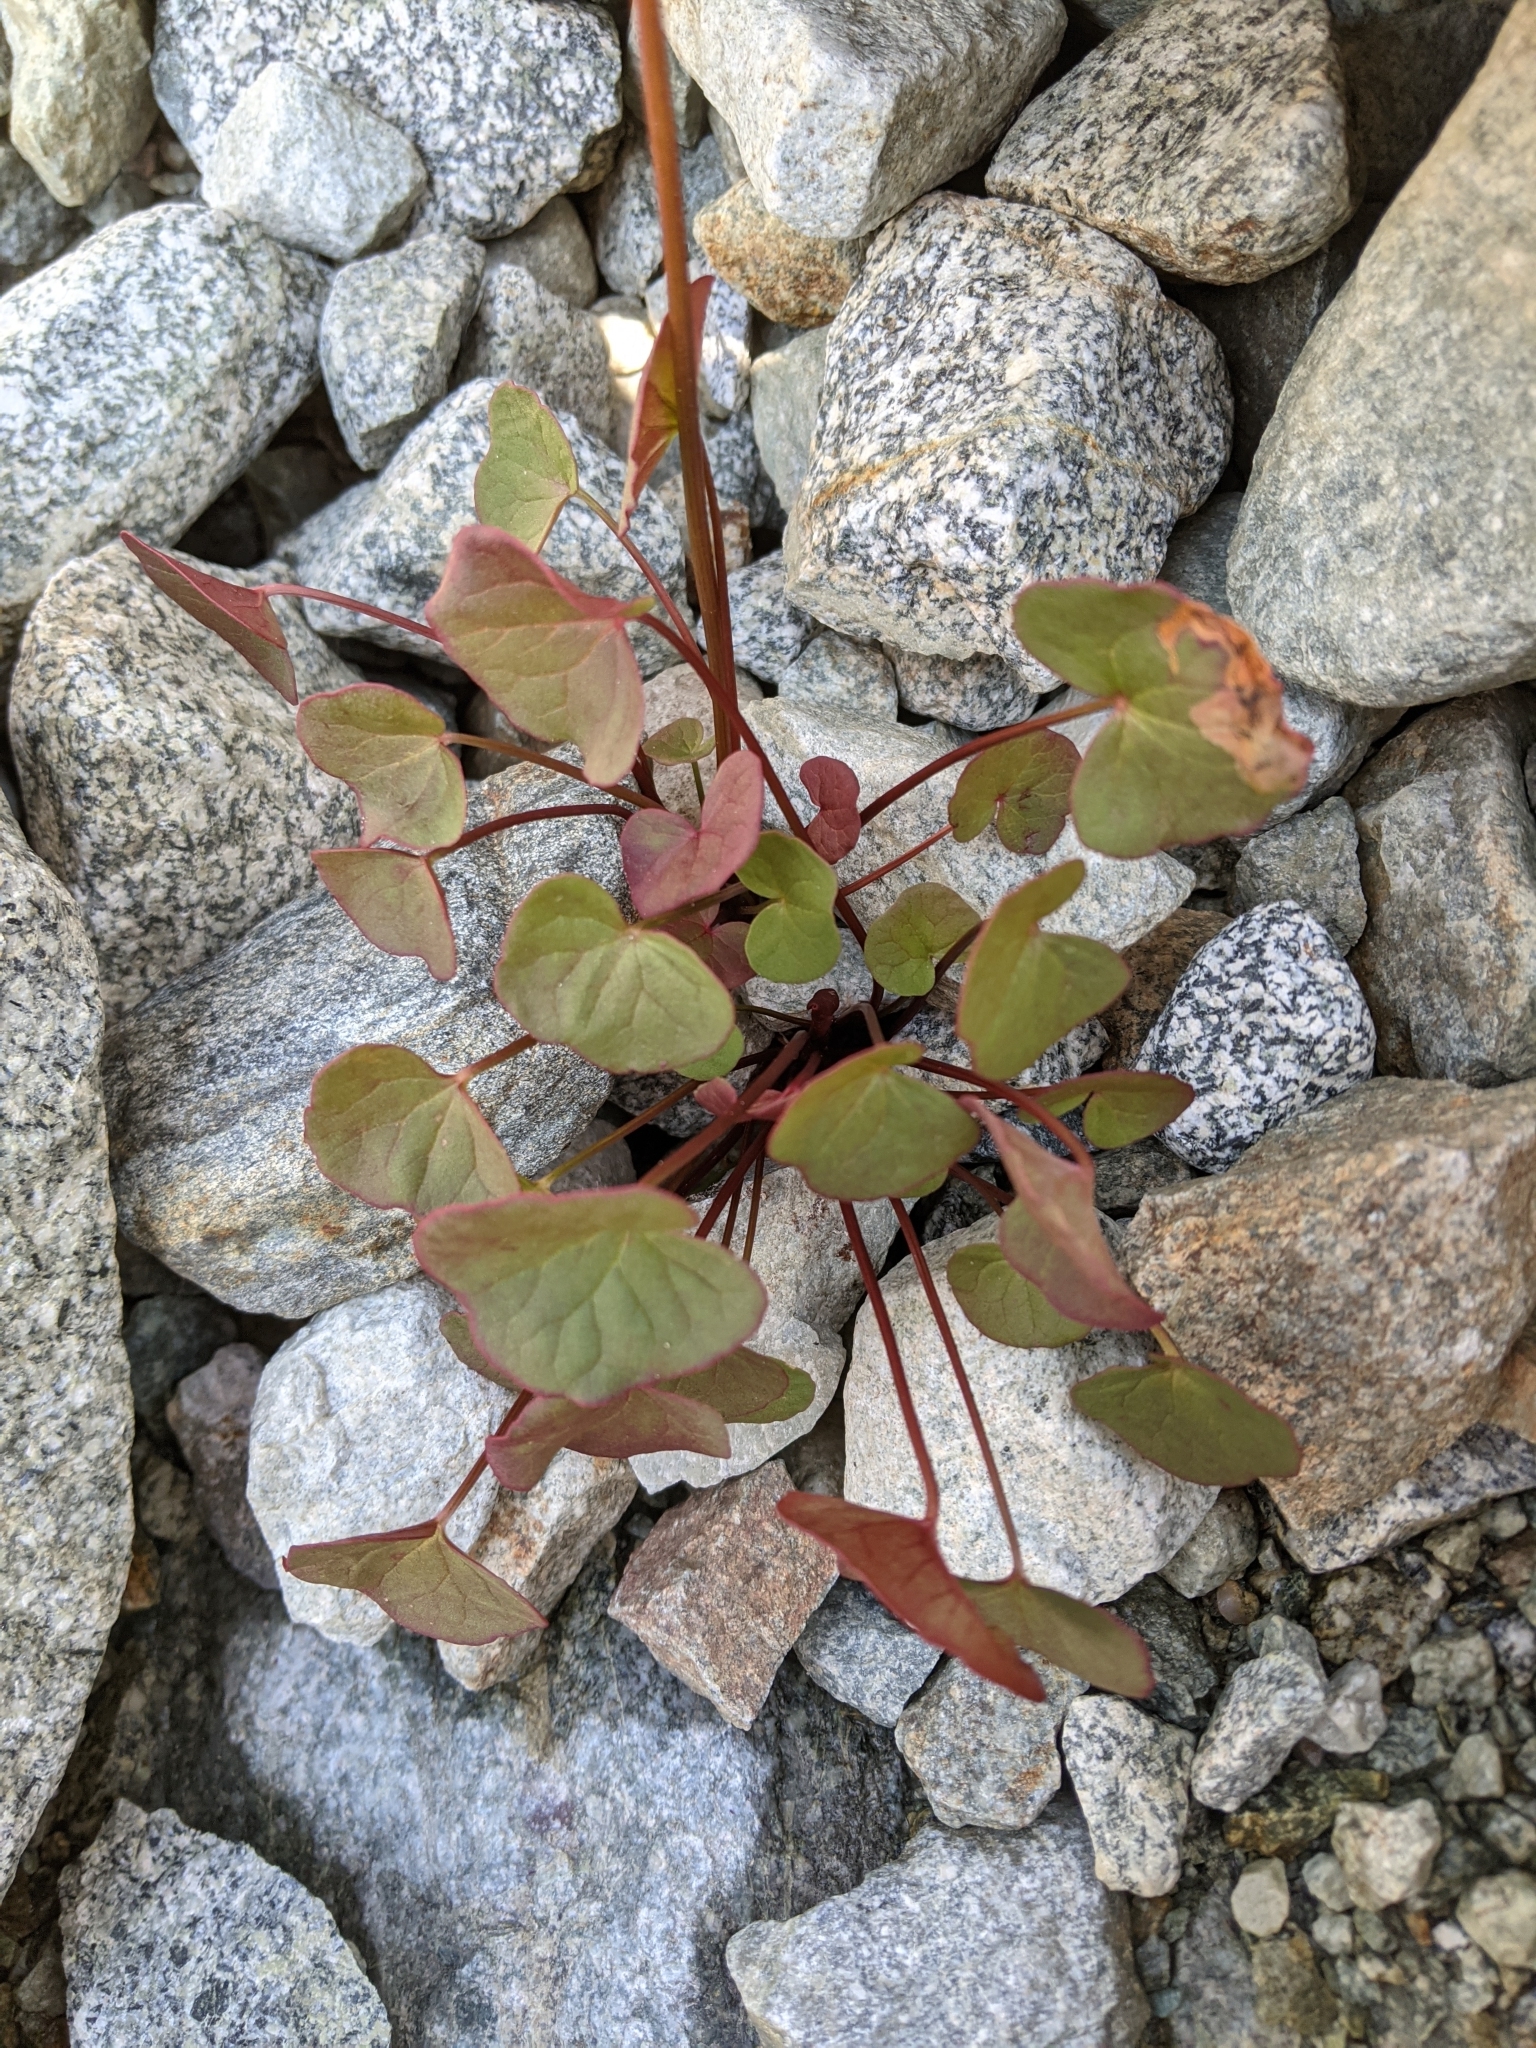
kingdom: Plantae
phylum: Tracheophyta
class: Magnoliopsida
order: Caryophyllales
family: Polygonaceae
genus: Oxyria
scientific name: Oxyria digyna
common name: Alpine mountain-sorrel
